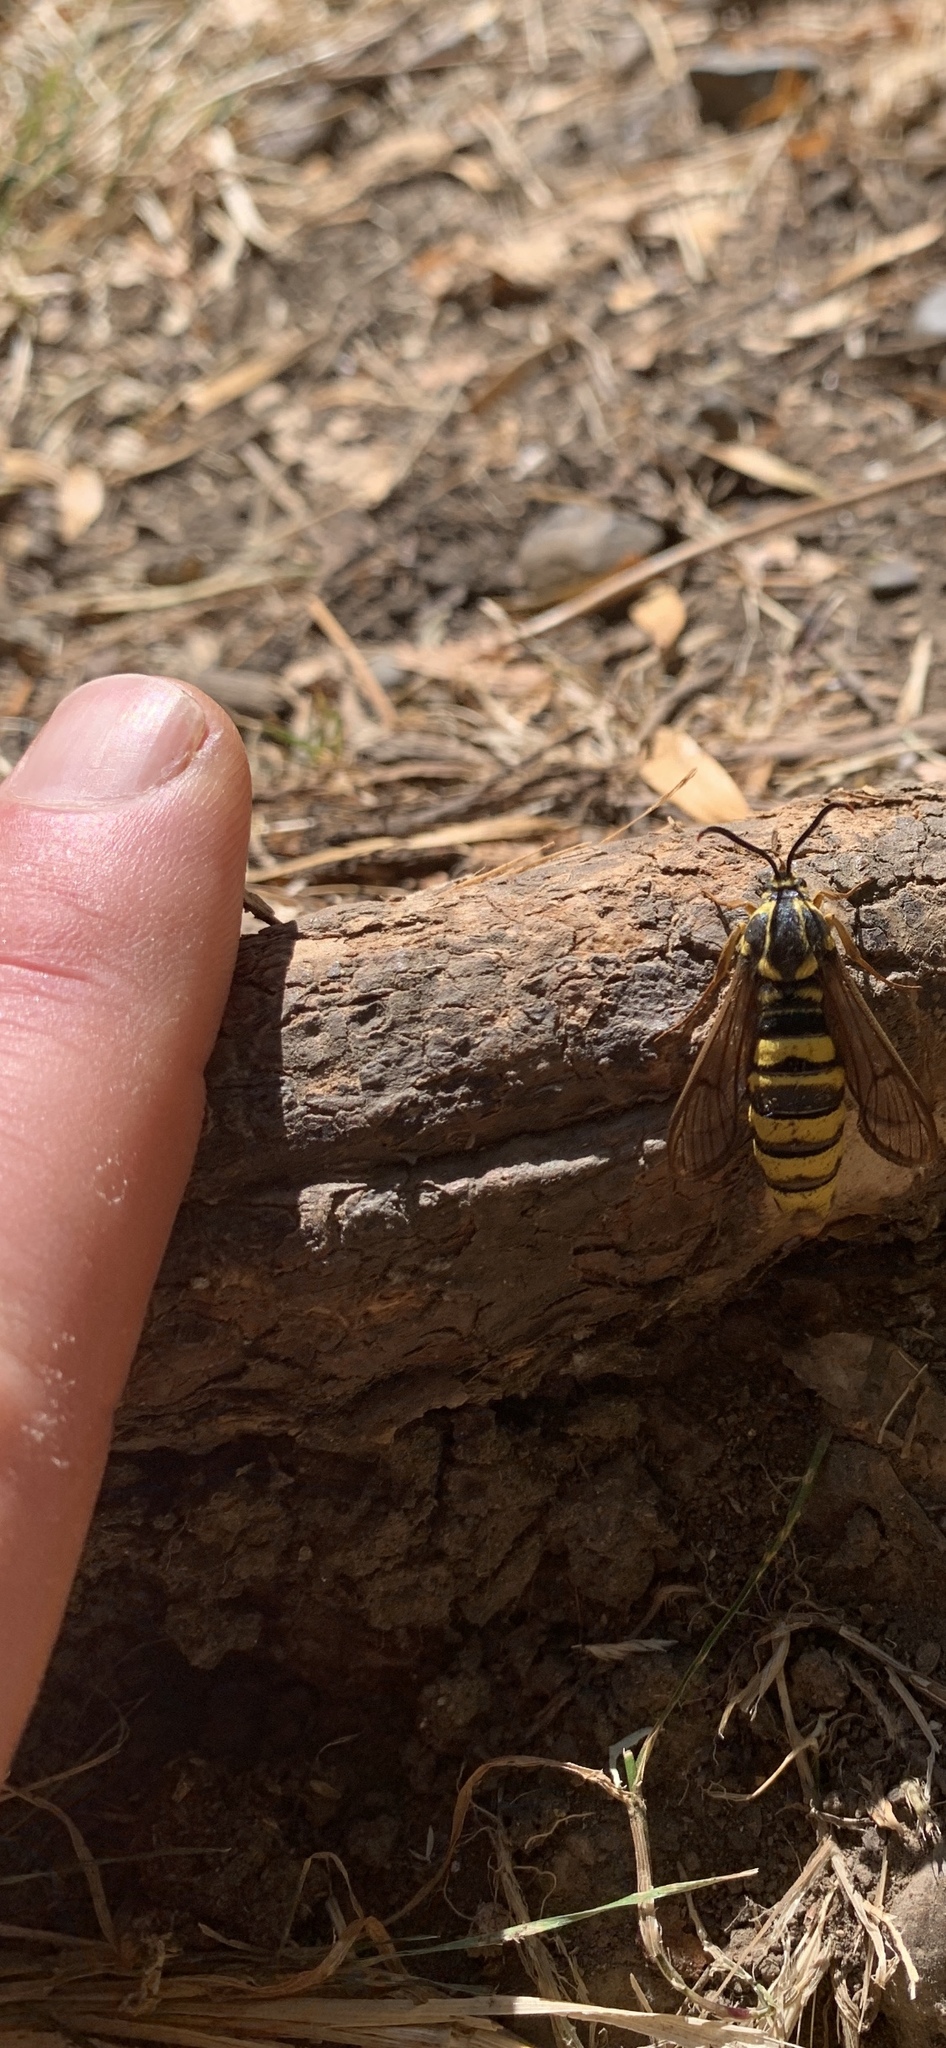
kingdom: Animalia
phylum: Arthropoda
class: Insecta
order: Lepidoptera
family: Sesiidae
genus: Sesia
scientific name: Sesia tibiale
